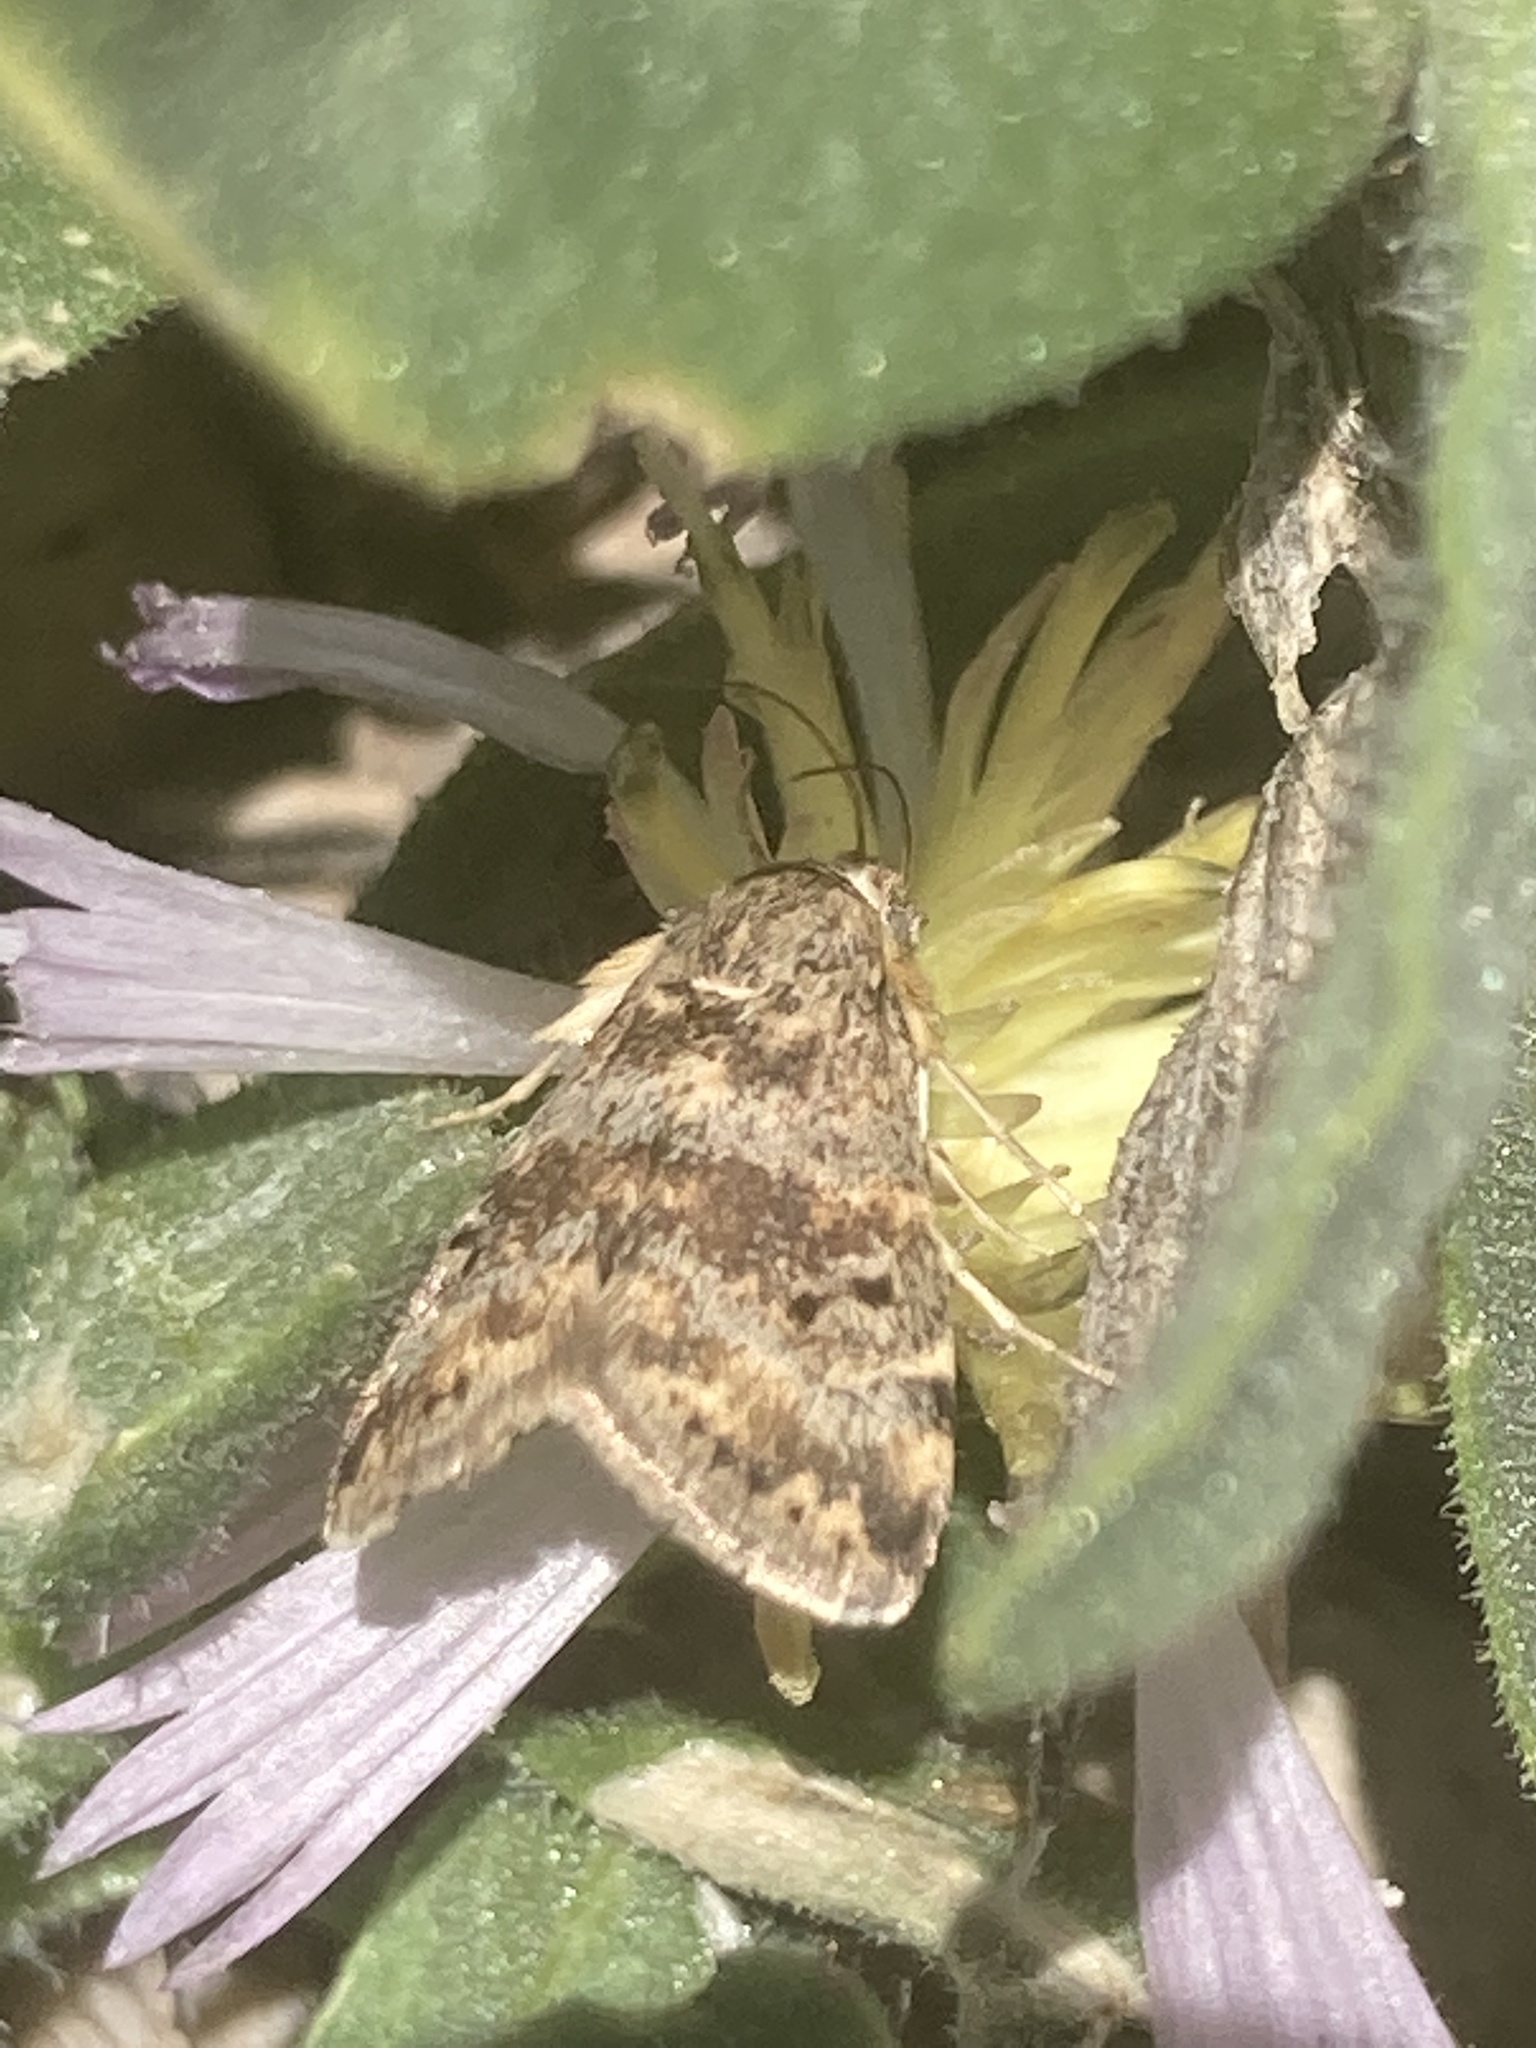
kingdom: Animalia
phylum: Arthropoda
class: Insecta
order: Lepidoptera
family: Crambidae
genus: Noctuelia
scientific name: Noctuelia Aporodes floralis
